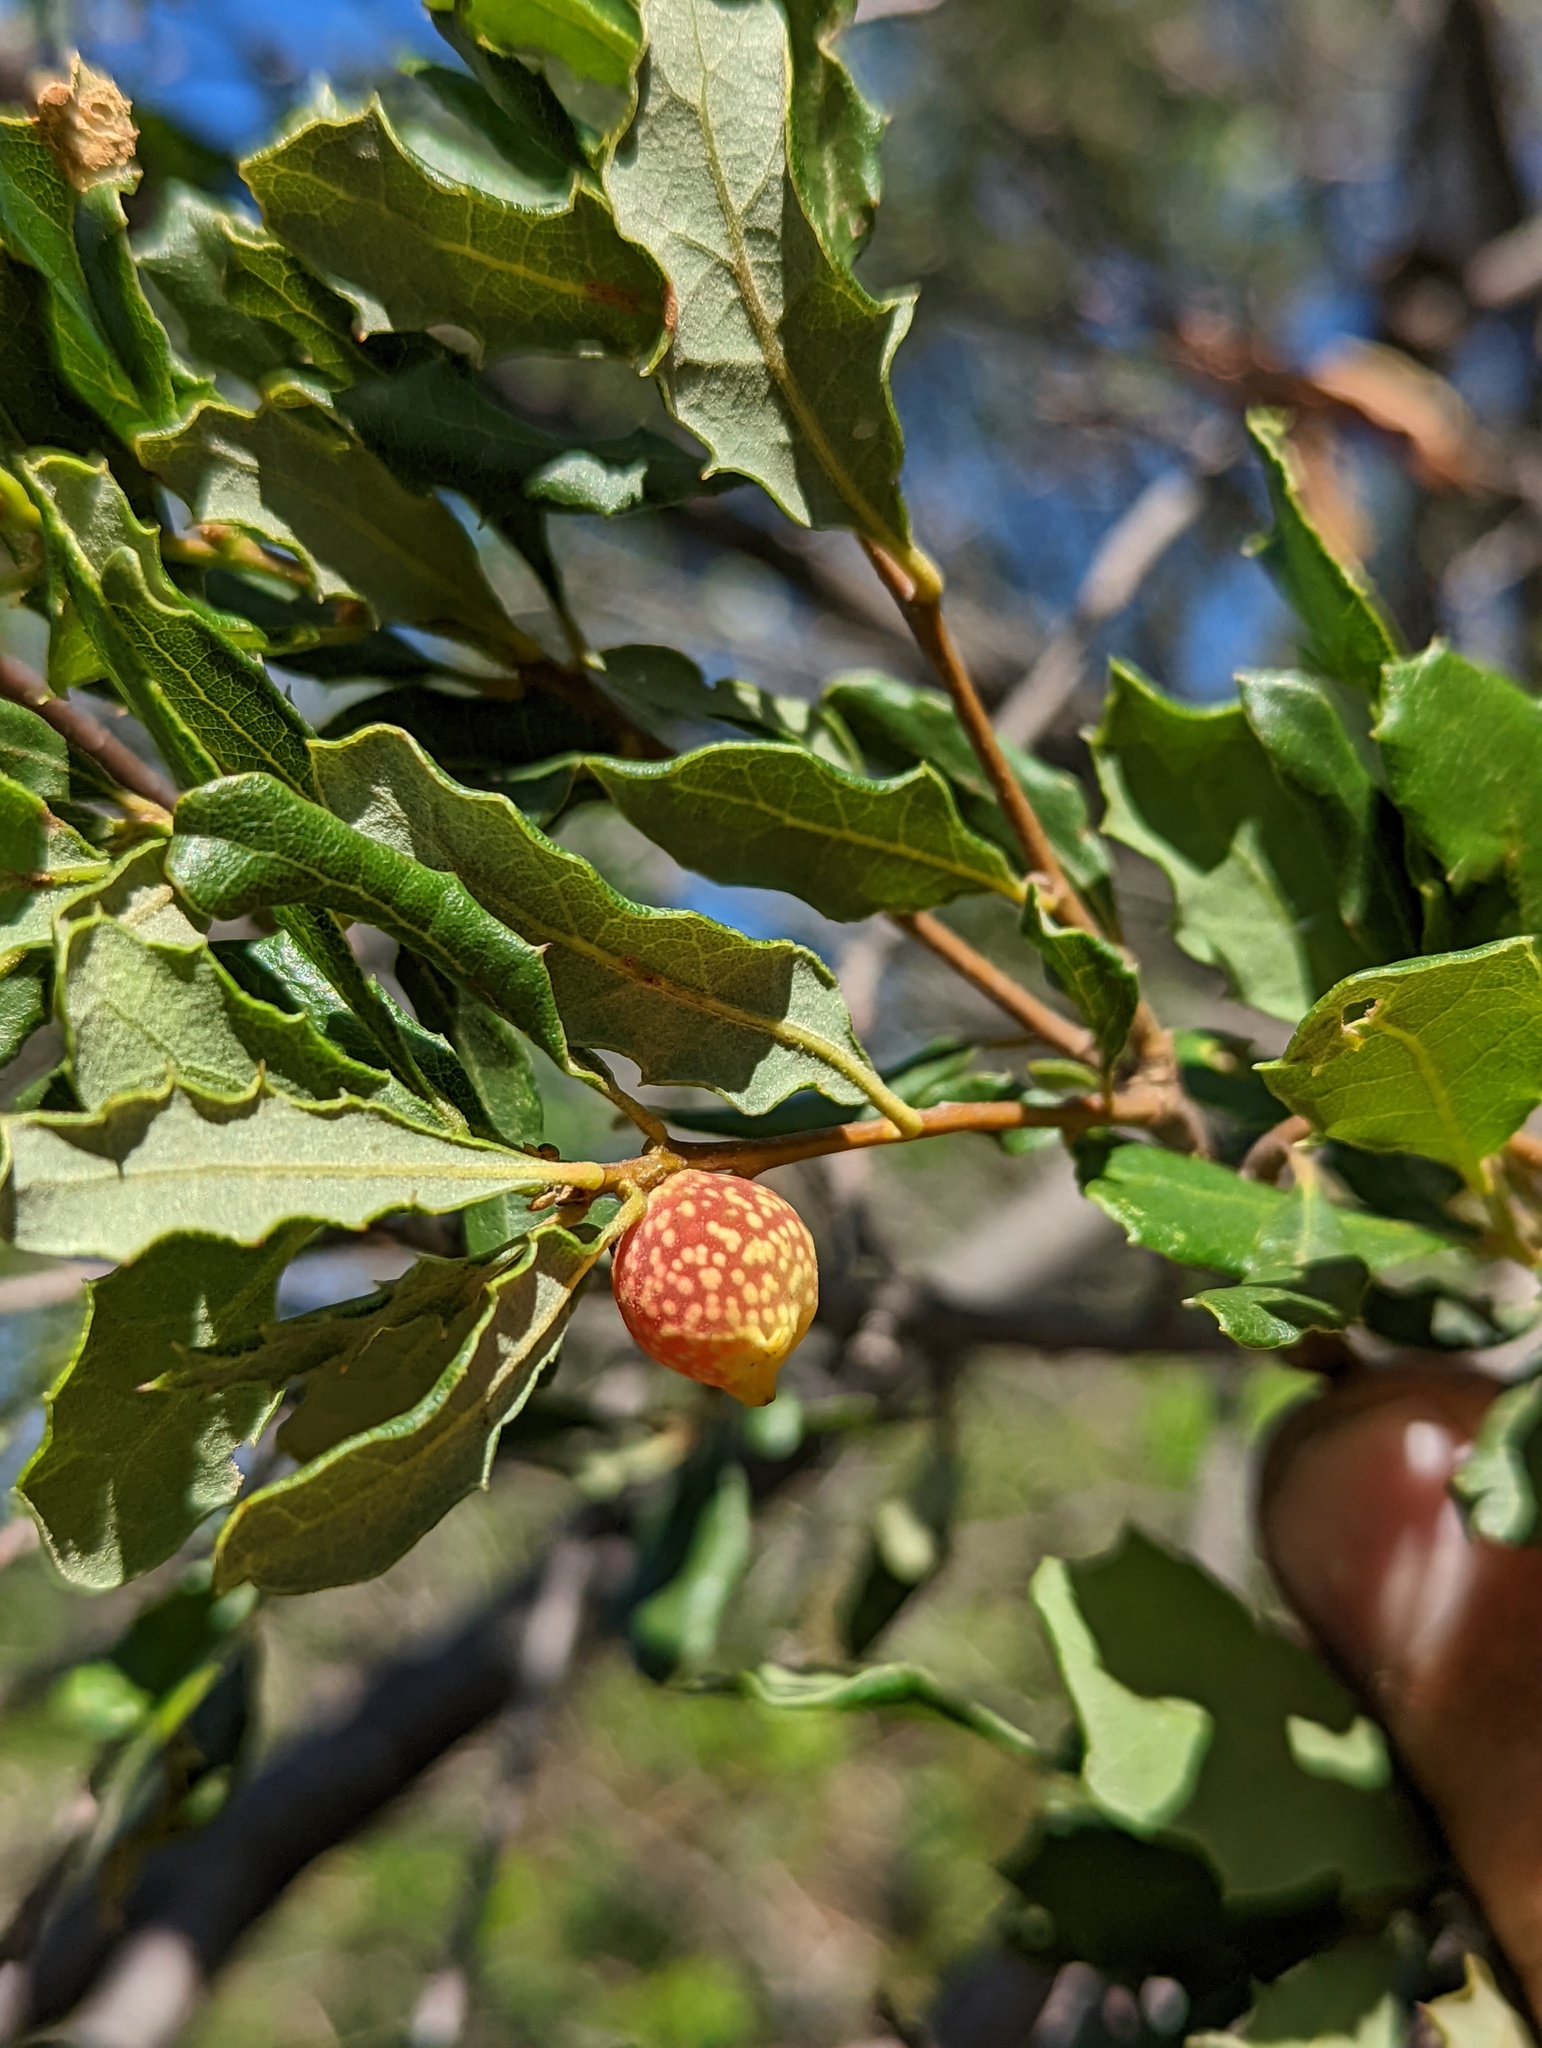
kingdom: Animalia
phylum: Arthropoda
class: Insecta
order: Hymenoptera
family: Cynipidae
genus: Burnettweldia
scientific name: Burnettweldia
